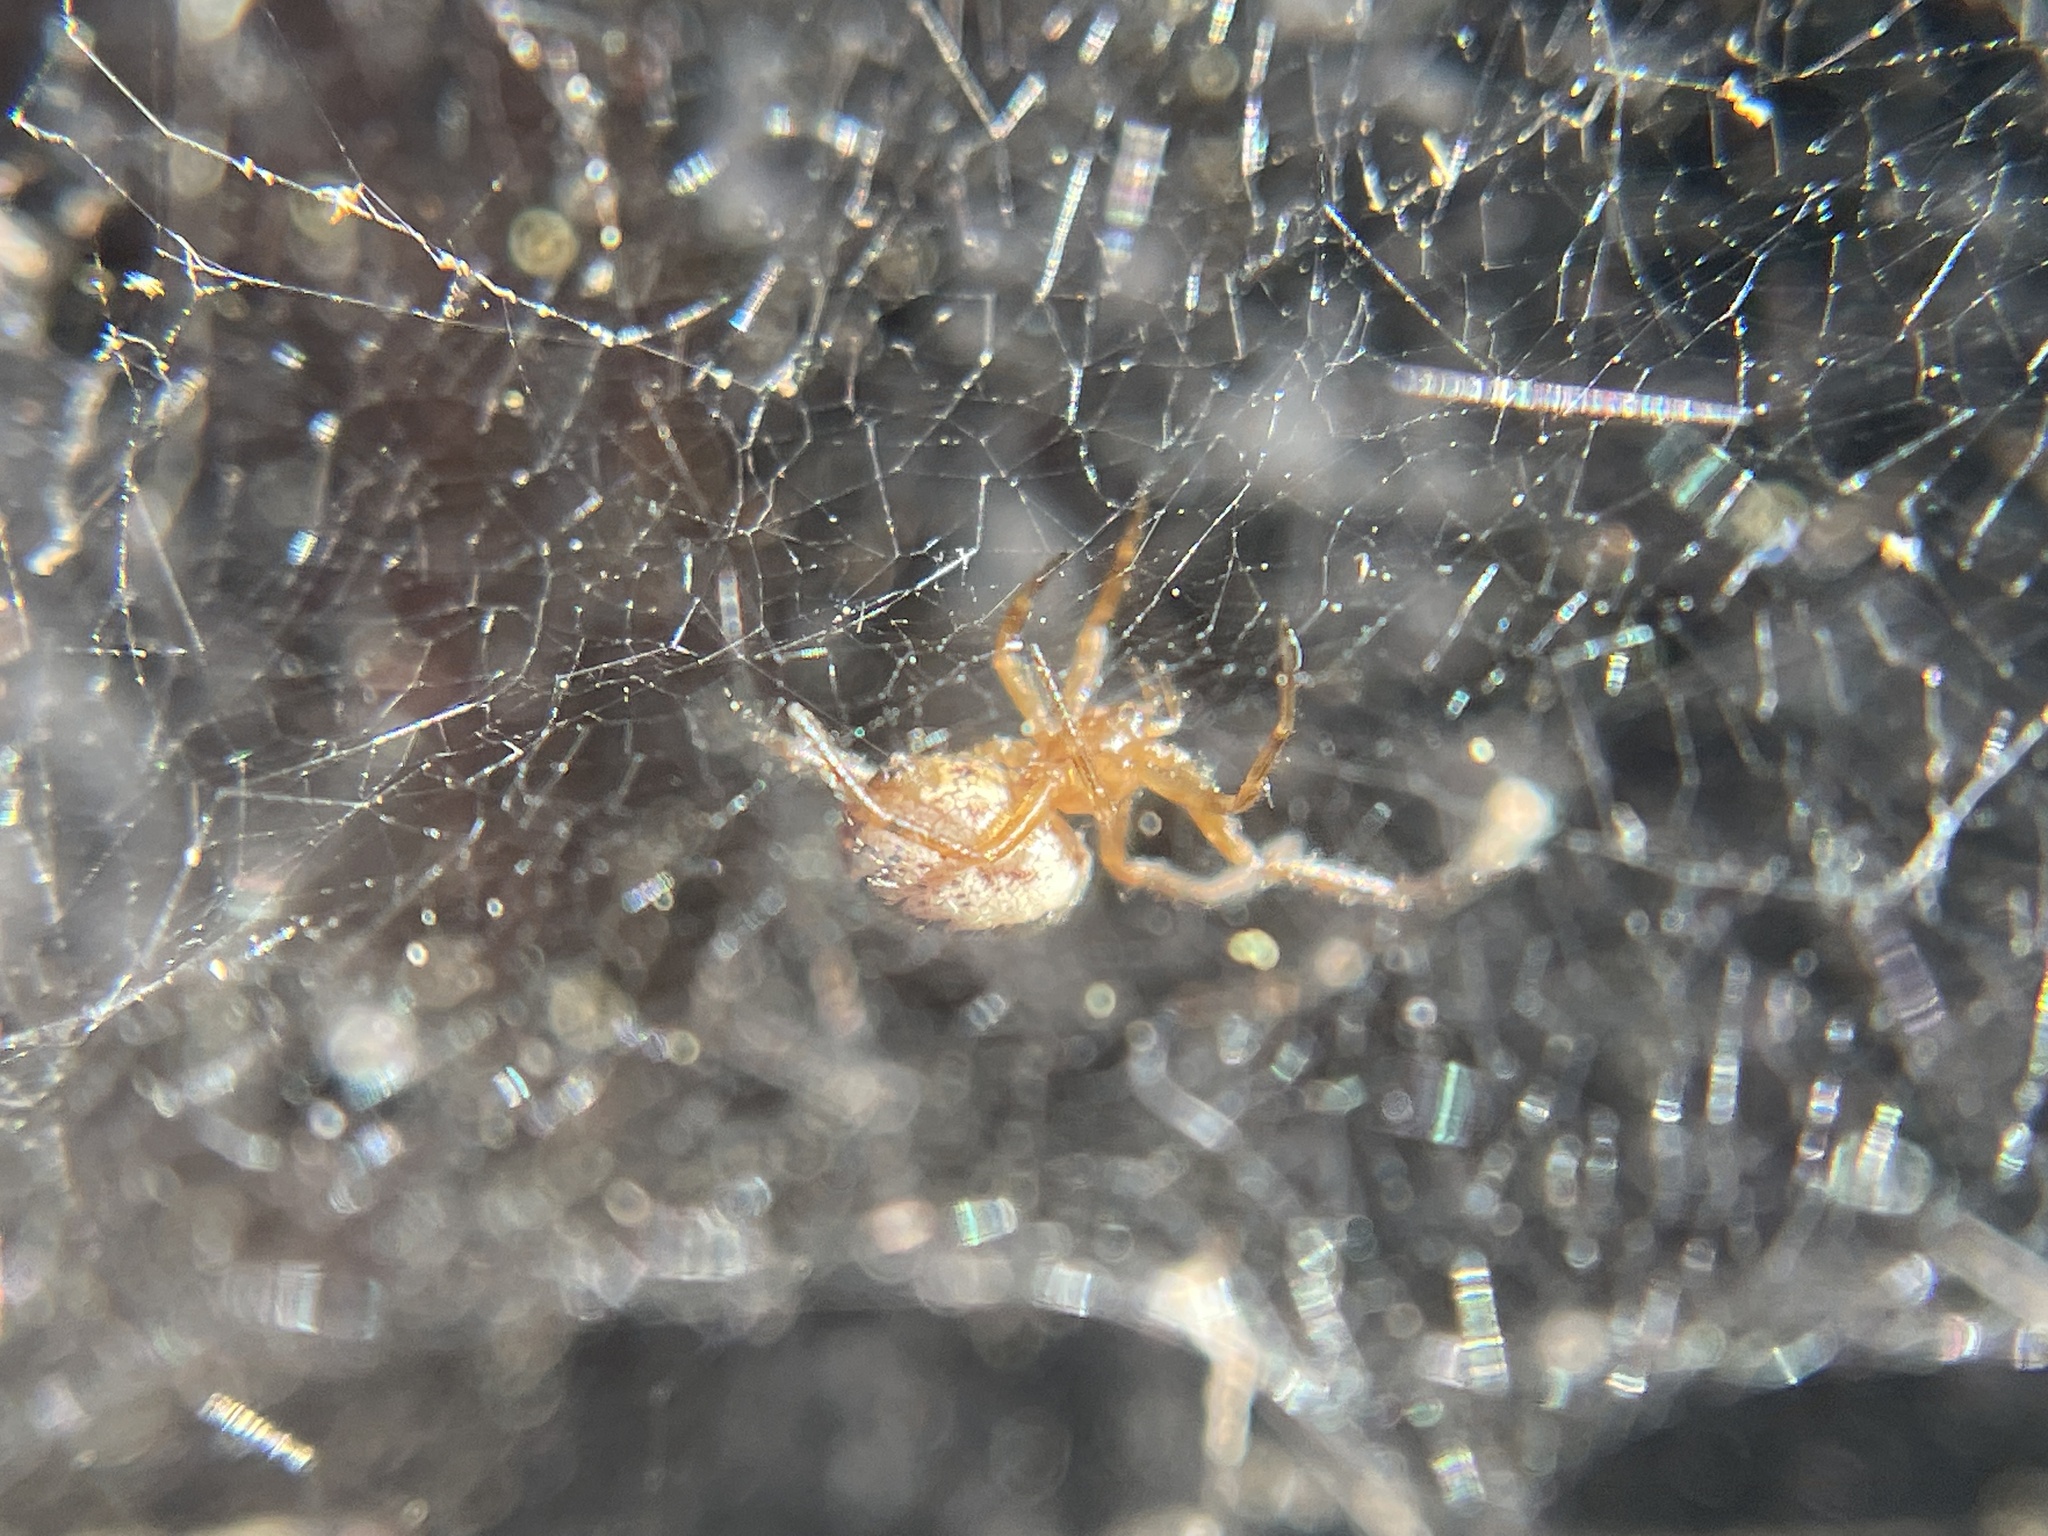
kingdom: Animalia
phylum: Arthropoda
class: Arachnida
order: Araneae
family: Theridiidae
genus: Steatoda
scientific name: Steatoda nobilis
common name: Cobweb weaver
